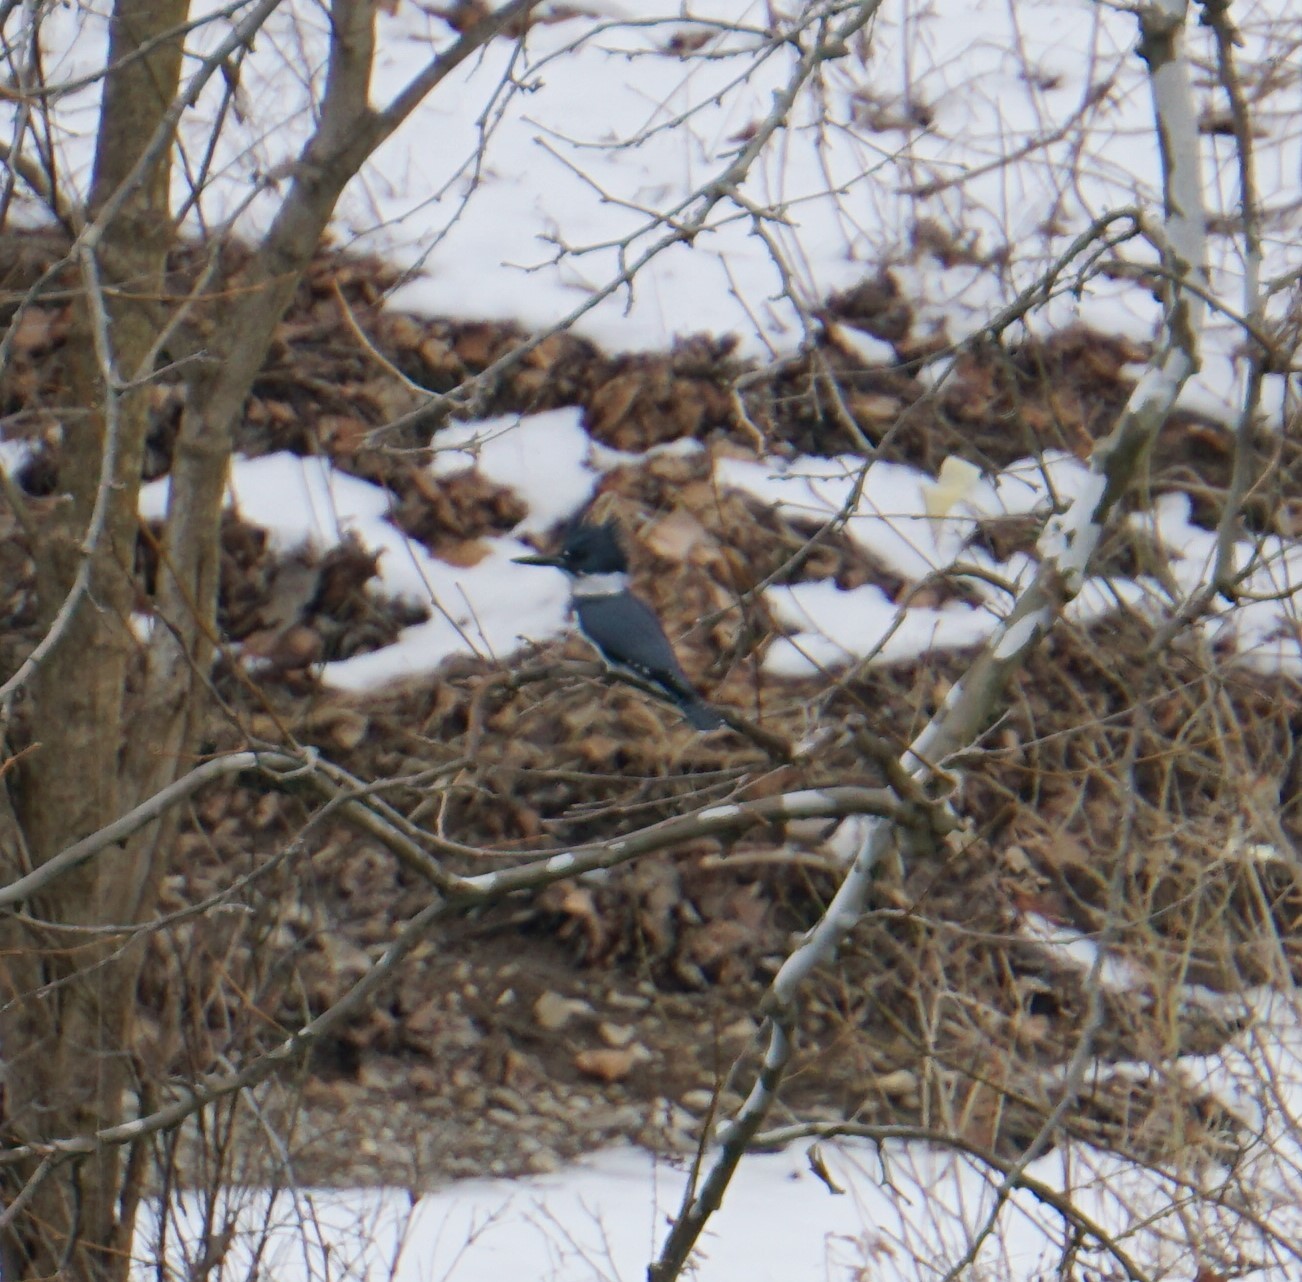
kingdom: Animalia
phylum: Chordata
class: Aves
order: Coraciiformes
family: Alcedinidae
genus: Megaceryle
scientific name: Megaceryle alcyon
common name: Belted kingfisher
